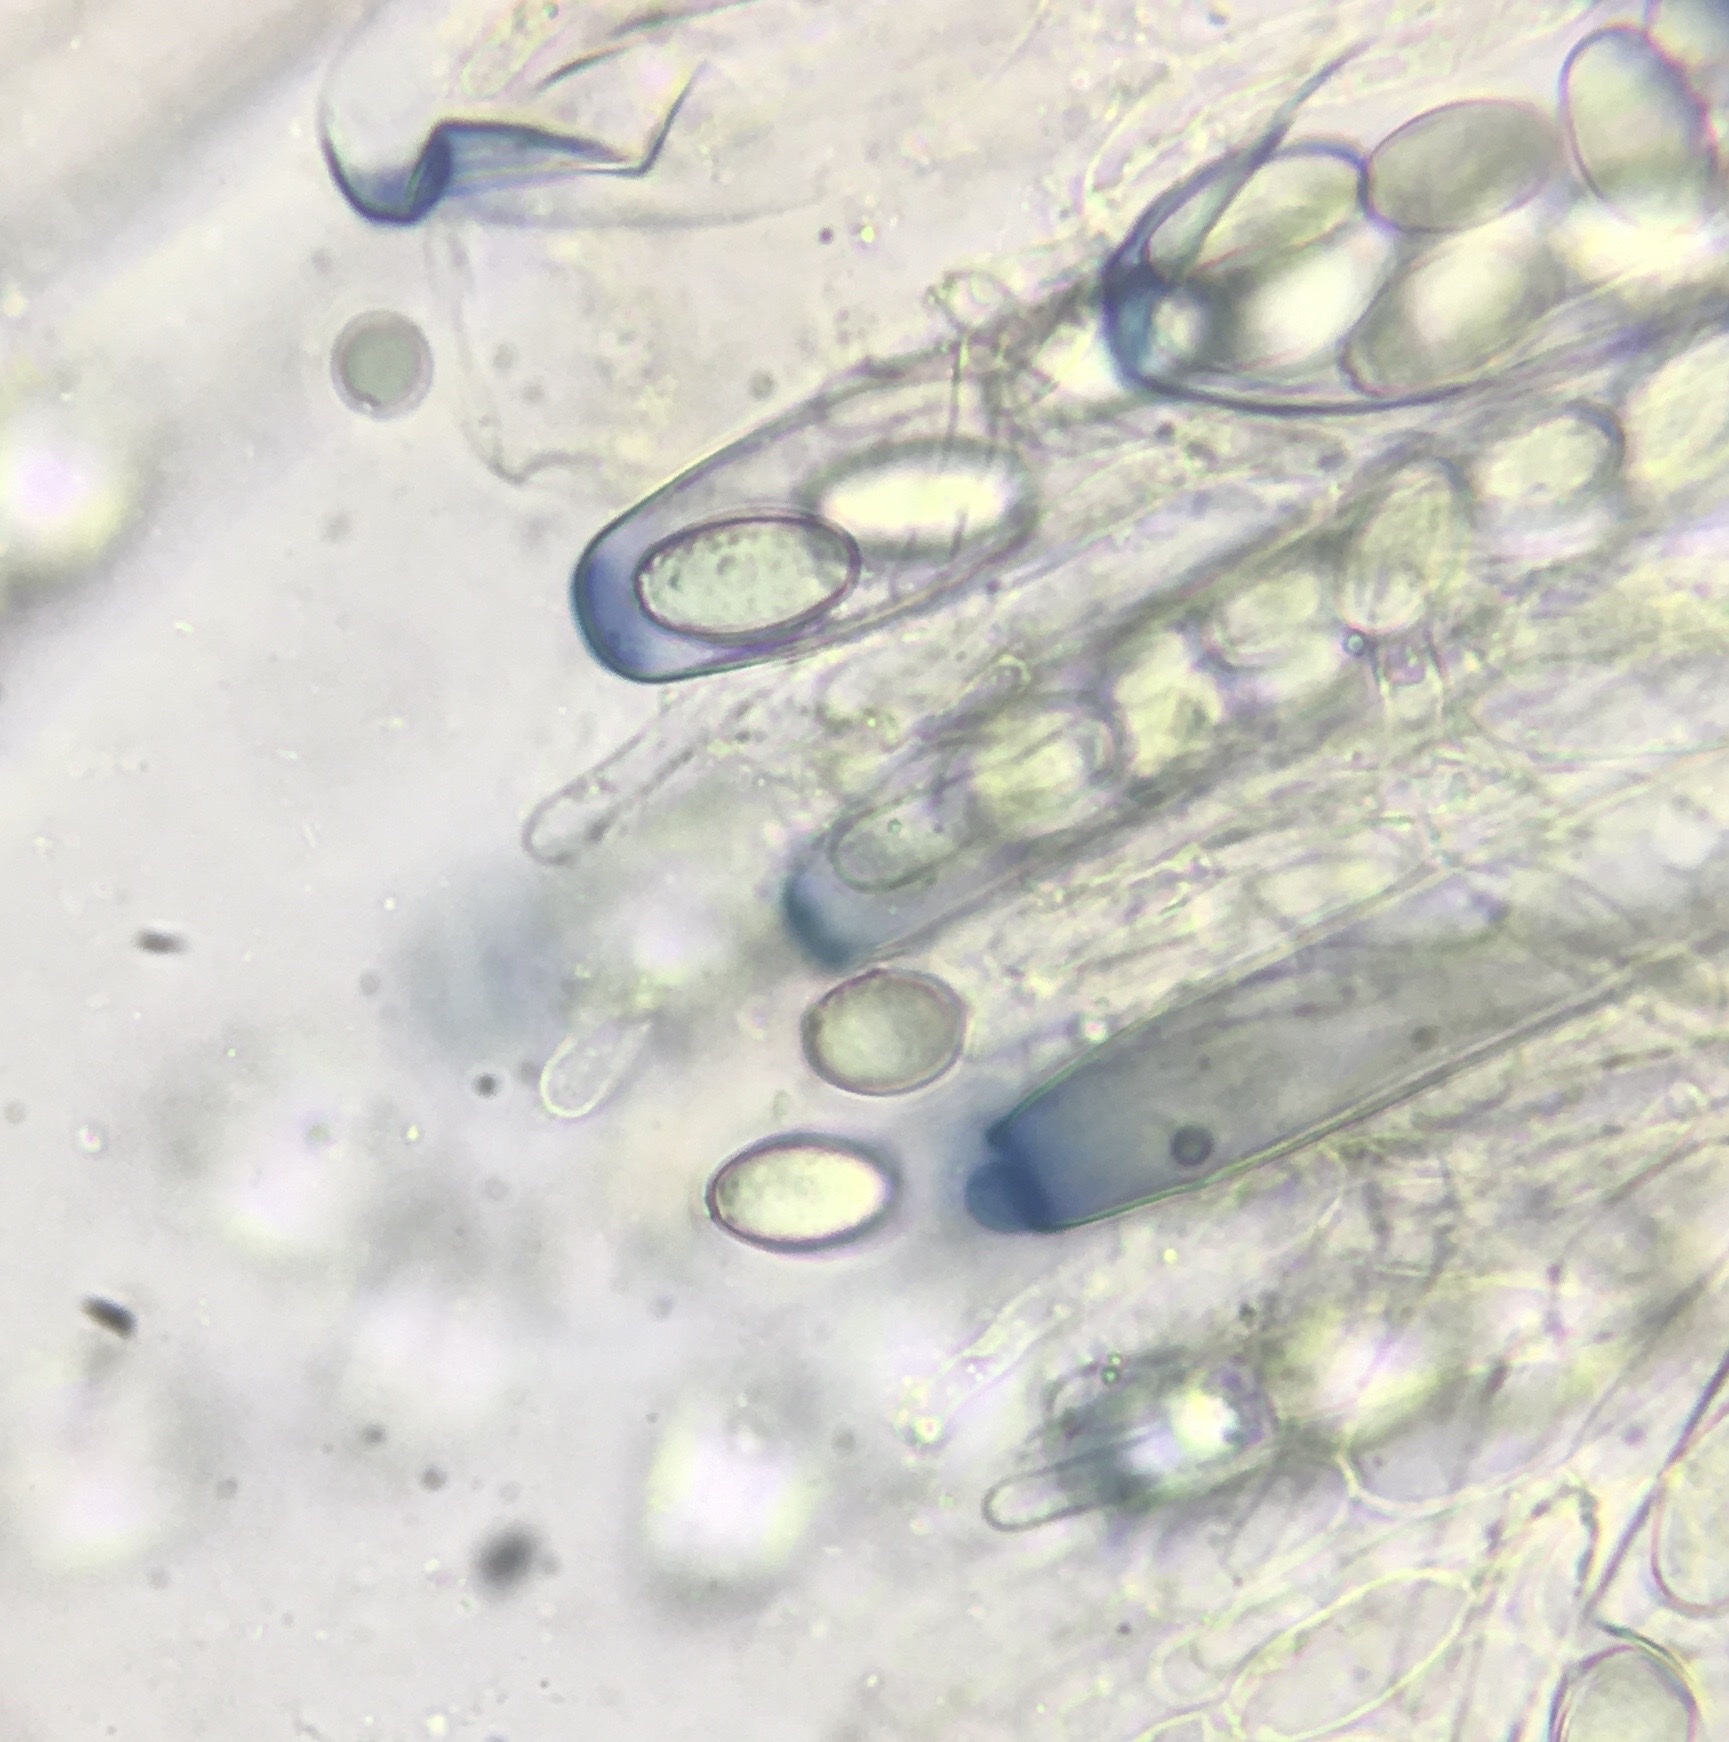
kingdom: Fungi
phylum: Ascomycota
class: Pezizomycetes
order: Pezizales
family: Pezizaceae
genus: Peziza
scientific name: Peziza fimeti
